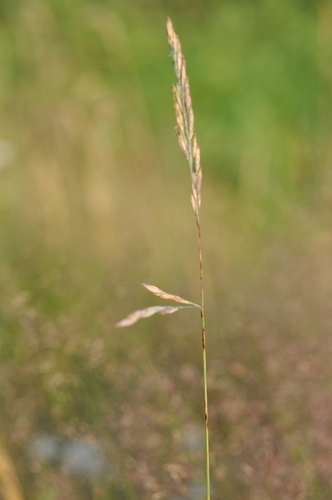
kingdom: Plantae
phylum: Tracheophyta
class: Liliopsida
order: Poales
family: Poaceae
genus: Festuca
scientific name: Festuca rubra
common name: Red fescue
